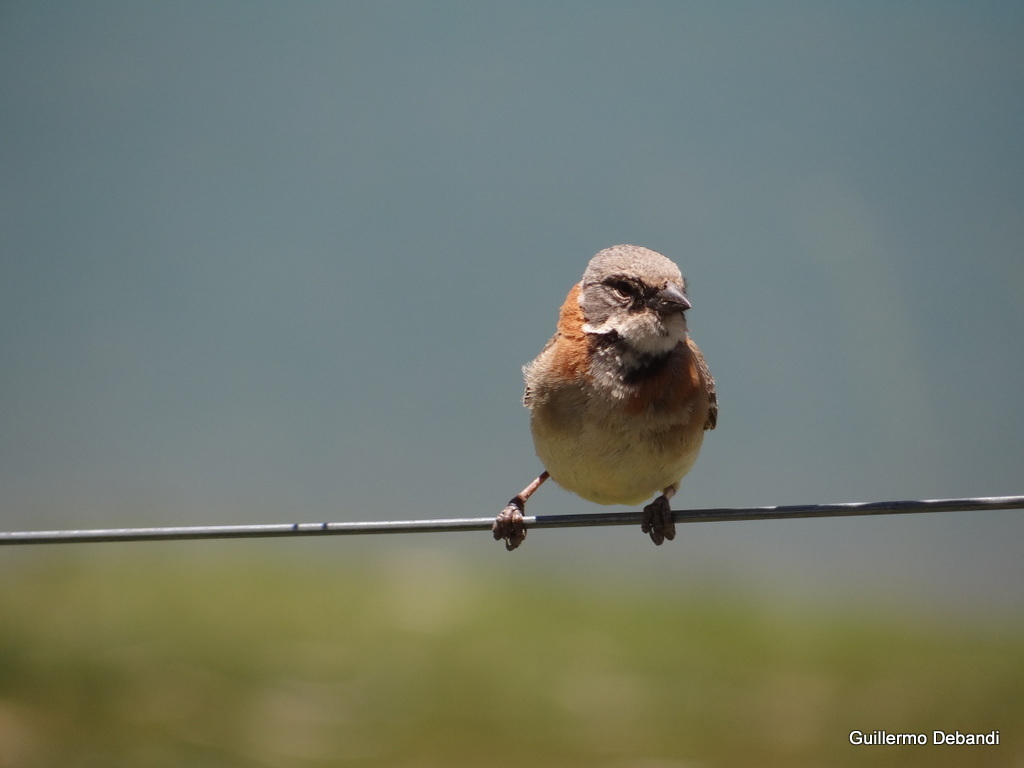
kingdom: Animalia
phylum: Chordata
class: Aves
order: Passeriformes
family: Passerellidae
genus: Zonotrichia
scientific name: Zonotrichia capensis
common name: Rufous-collared sparrow
